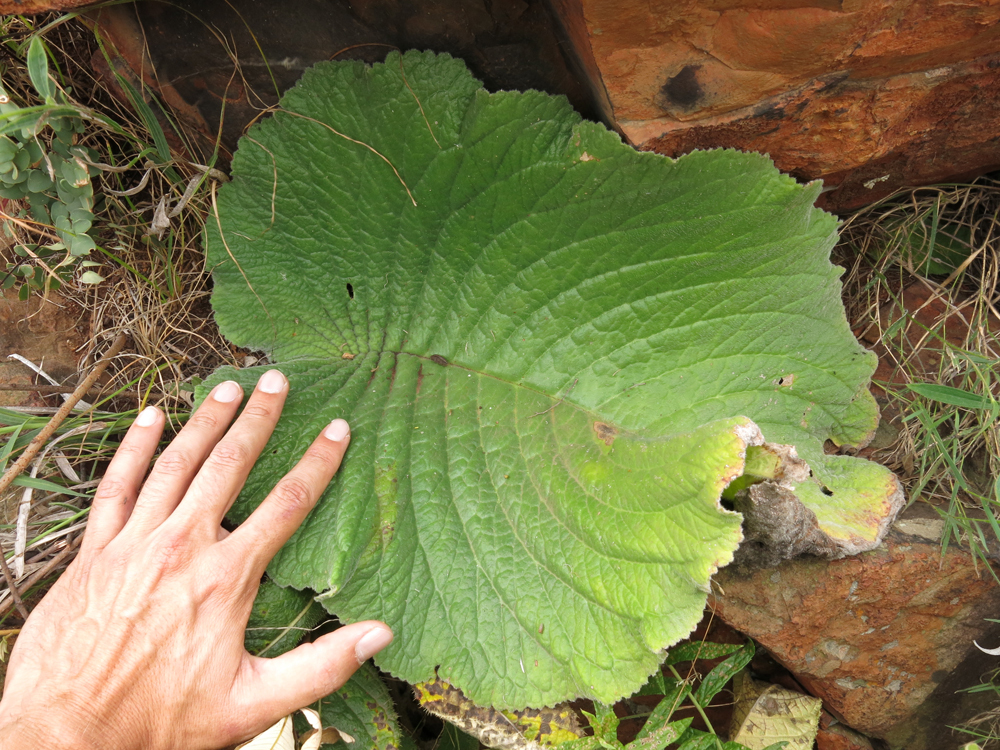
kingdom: Plantae
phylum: Tracheophyta
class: Magnoliopsida
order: Lamiales
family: Gesneriaceae
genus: Streptocarpus
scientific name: Streptocarpus vandeleurii
